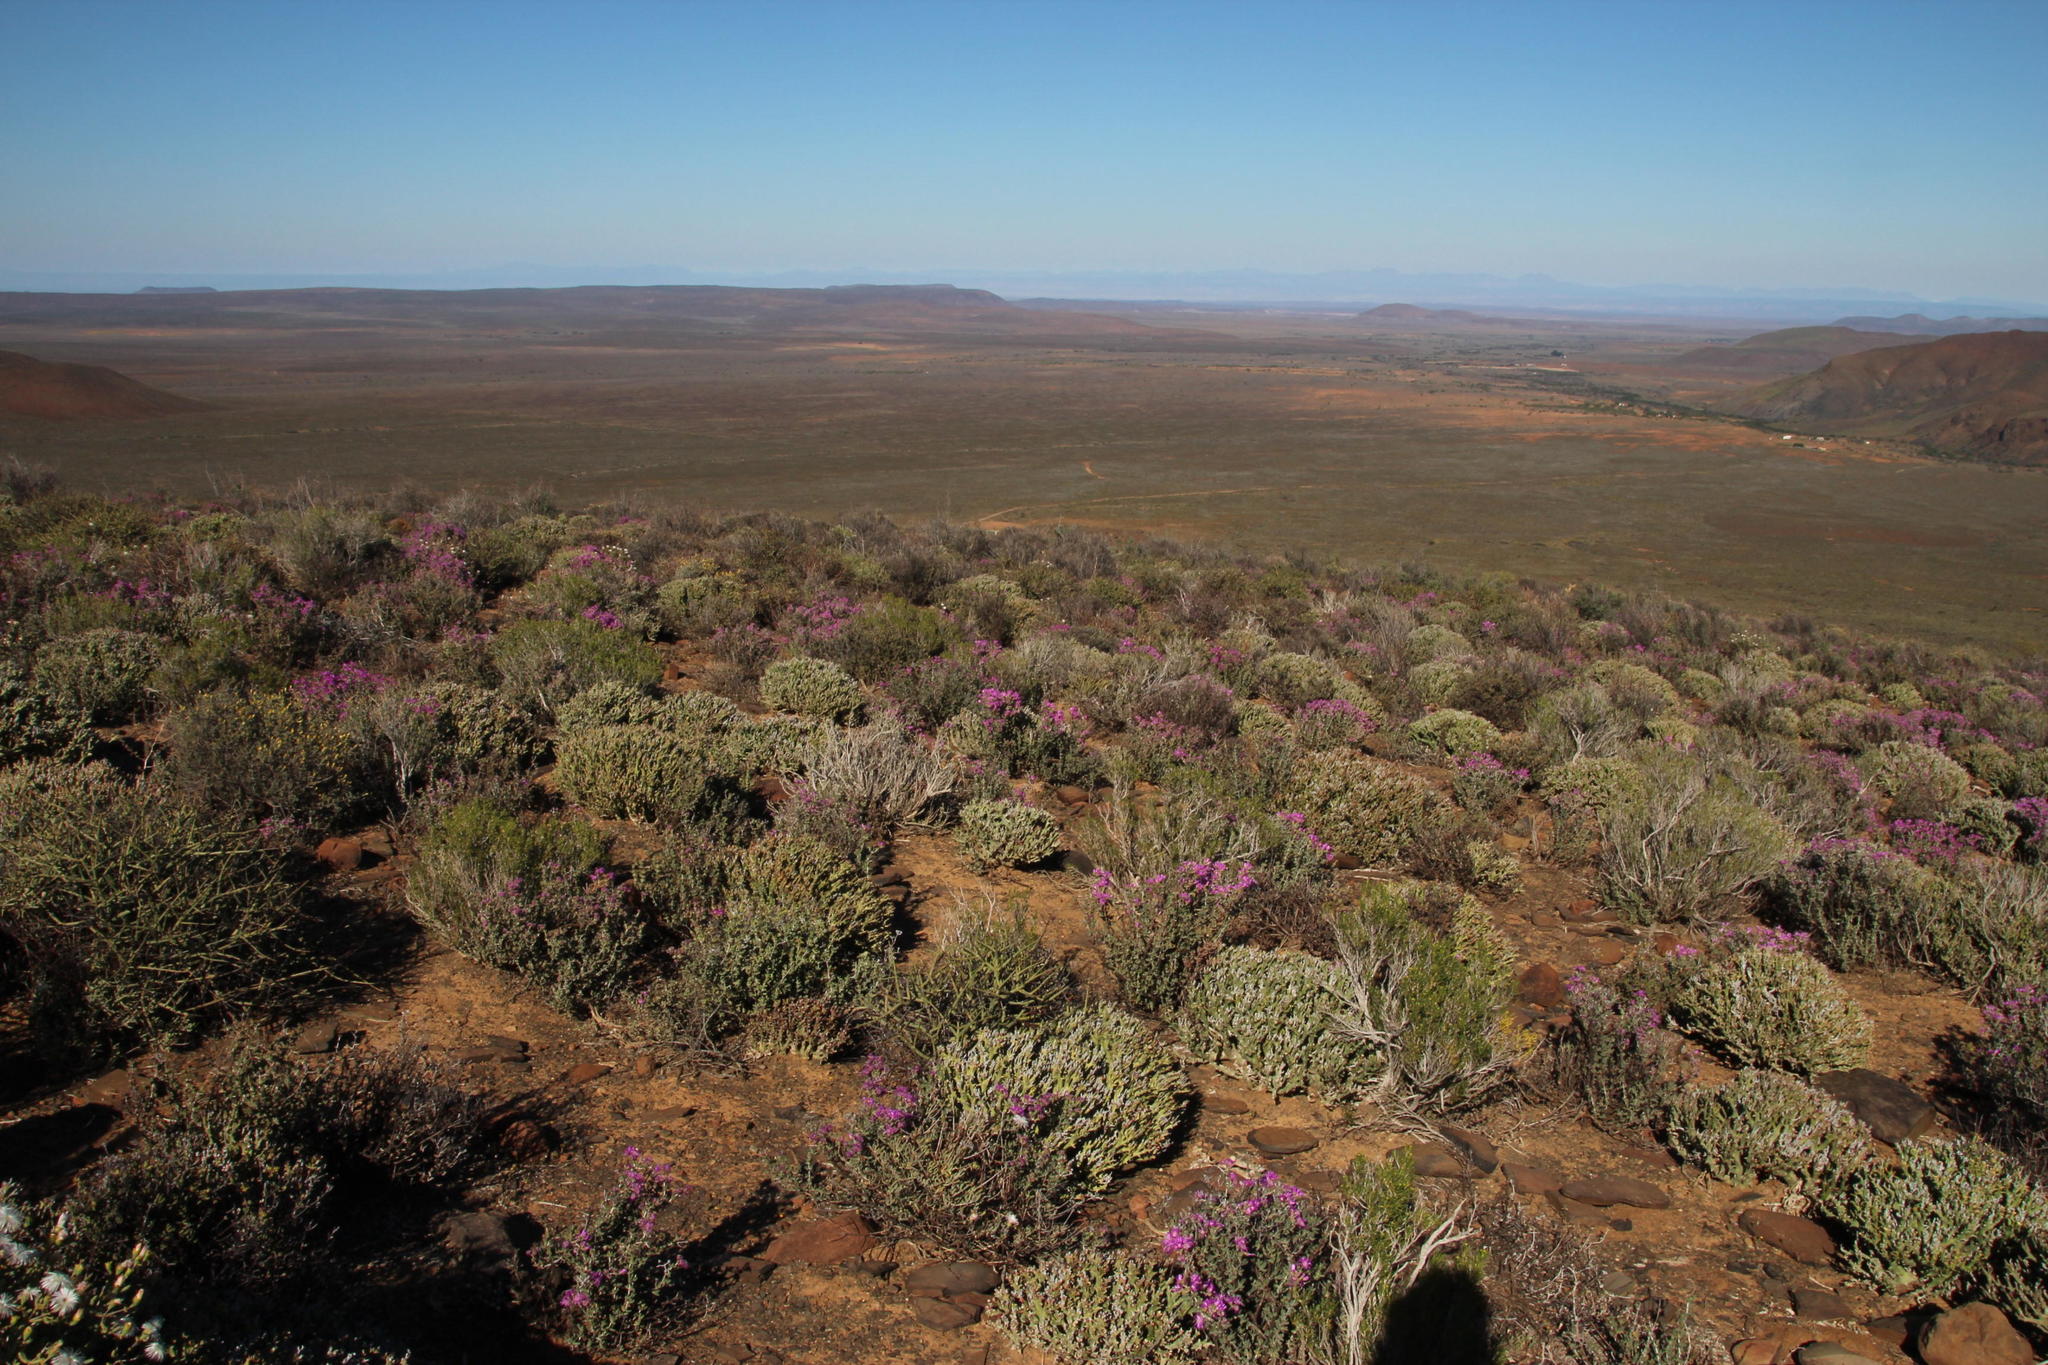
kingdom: Plantae
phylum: Tracheophyta
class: Magnoliopsida
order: Malpighiales
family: Euphorbiaceae
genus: Euphorbia
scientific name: Euphorbia hamata
